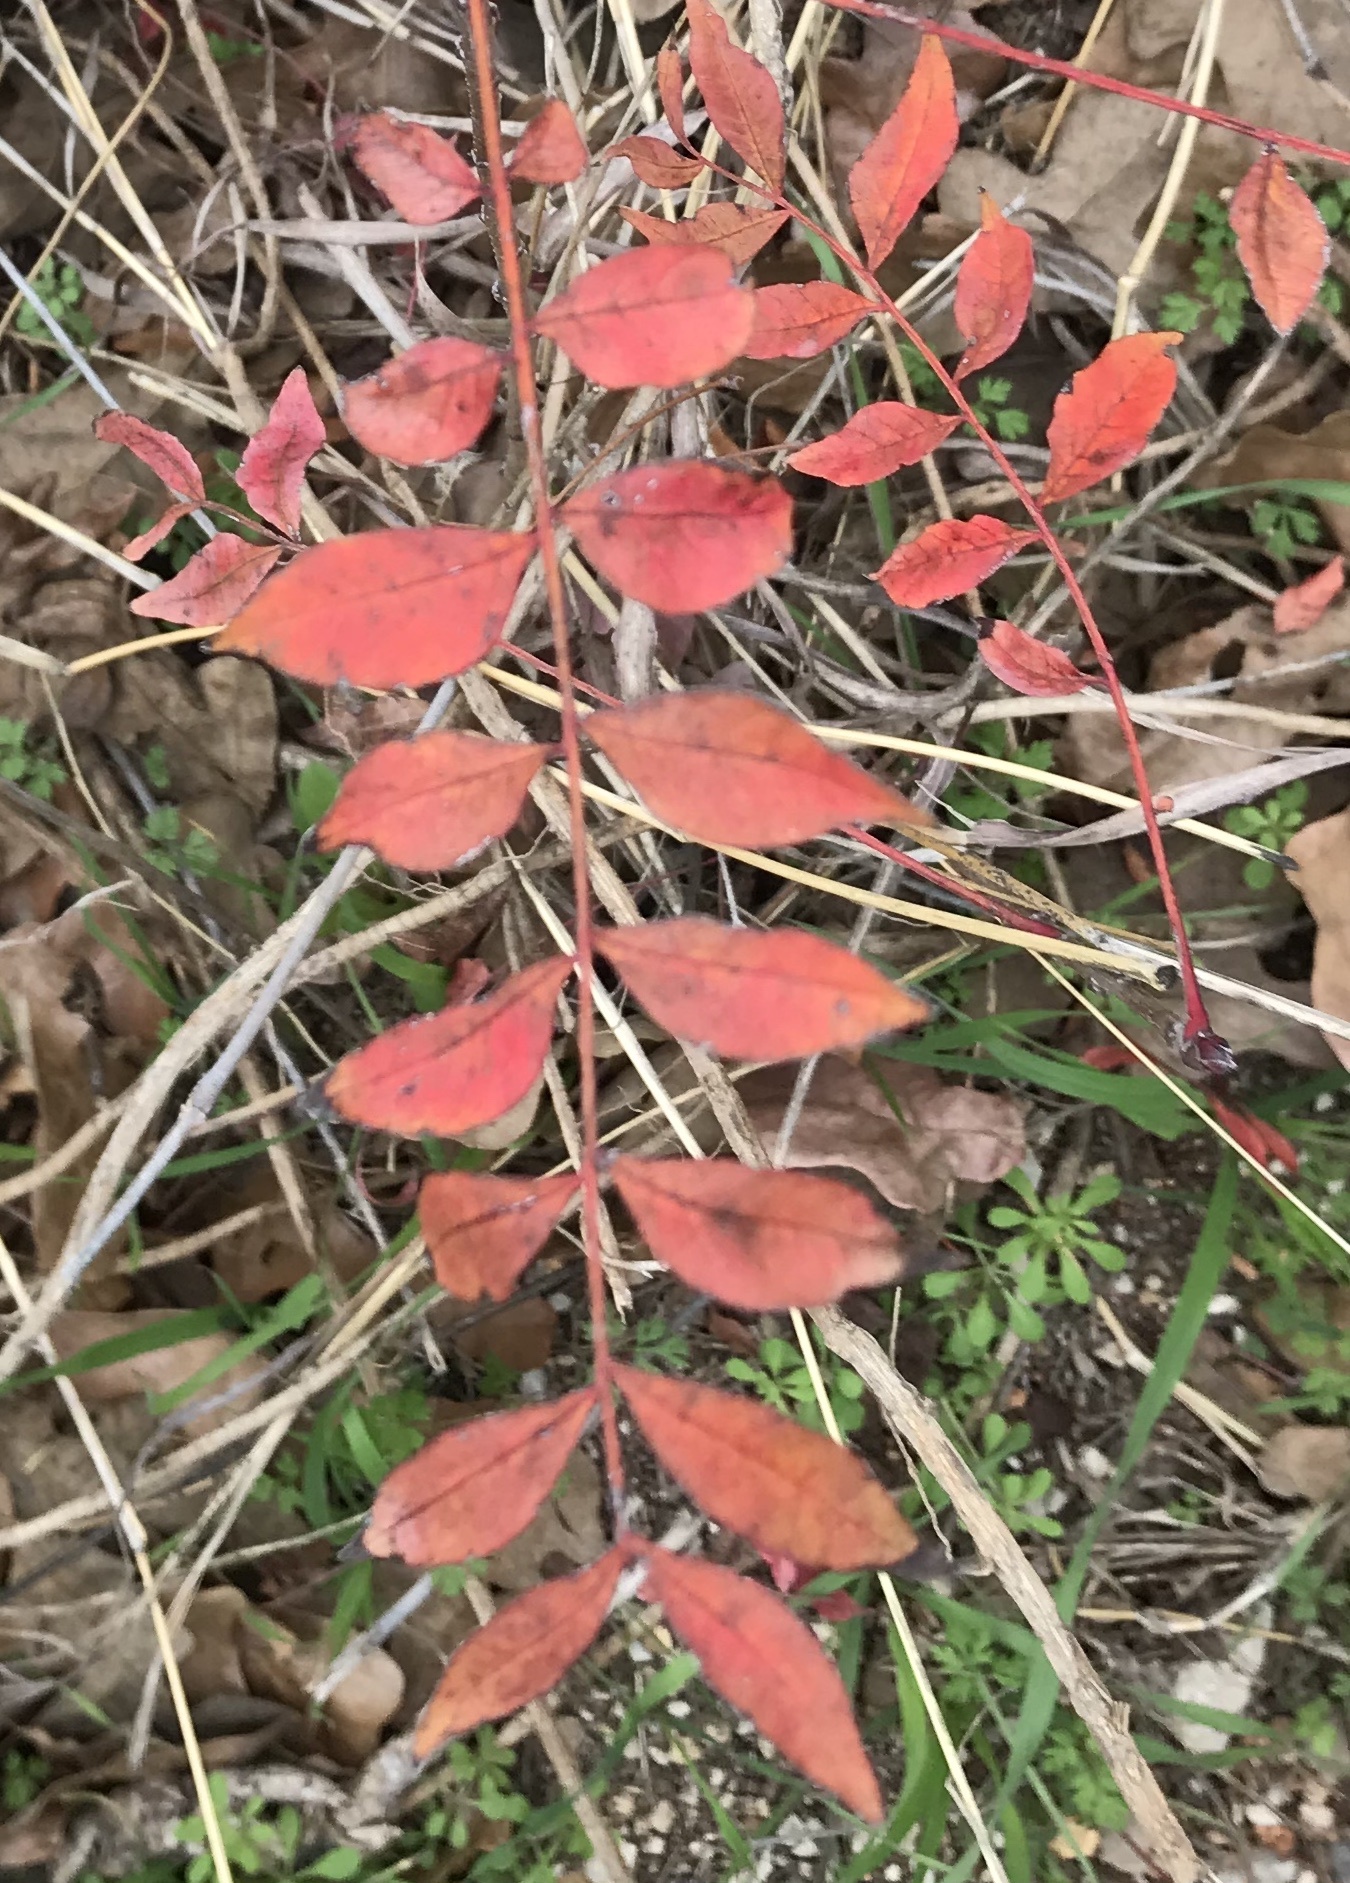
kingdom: Plantae
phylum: Tracheophyta
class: Magnoliopsida
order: Sapindales
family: Anacardiaceae
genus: Pistacia
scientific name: Pistacia chinensis
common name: Chinese pistache
